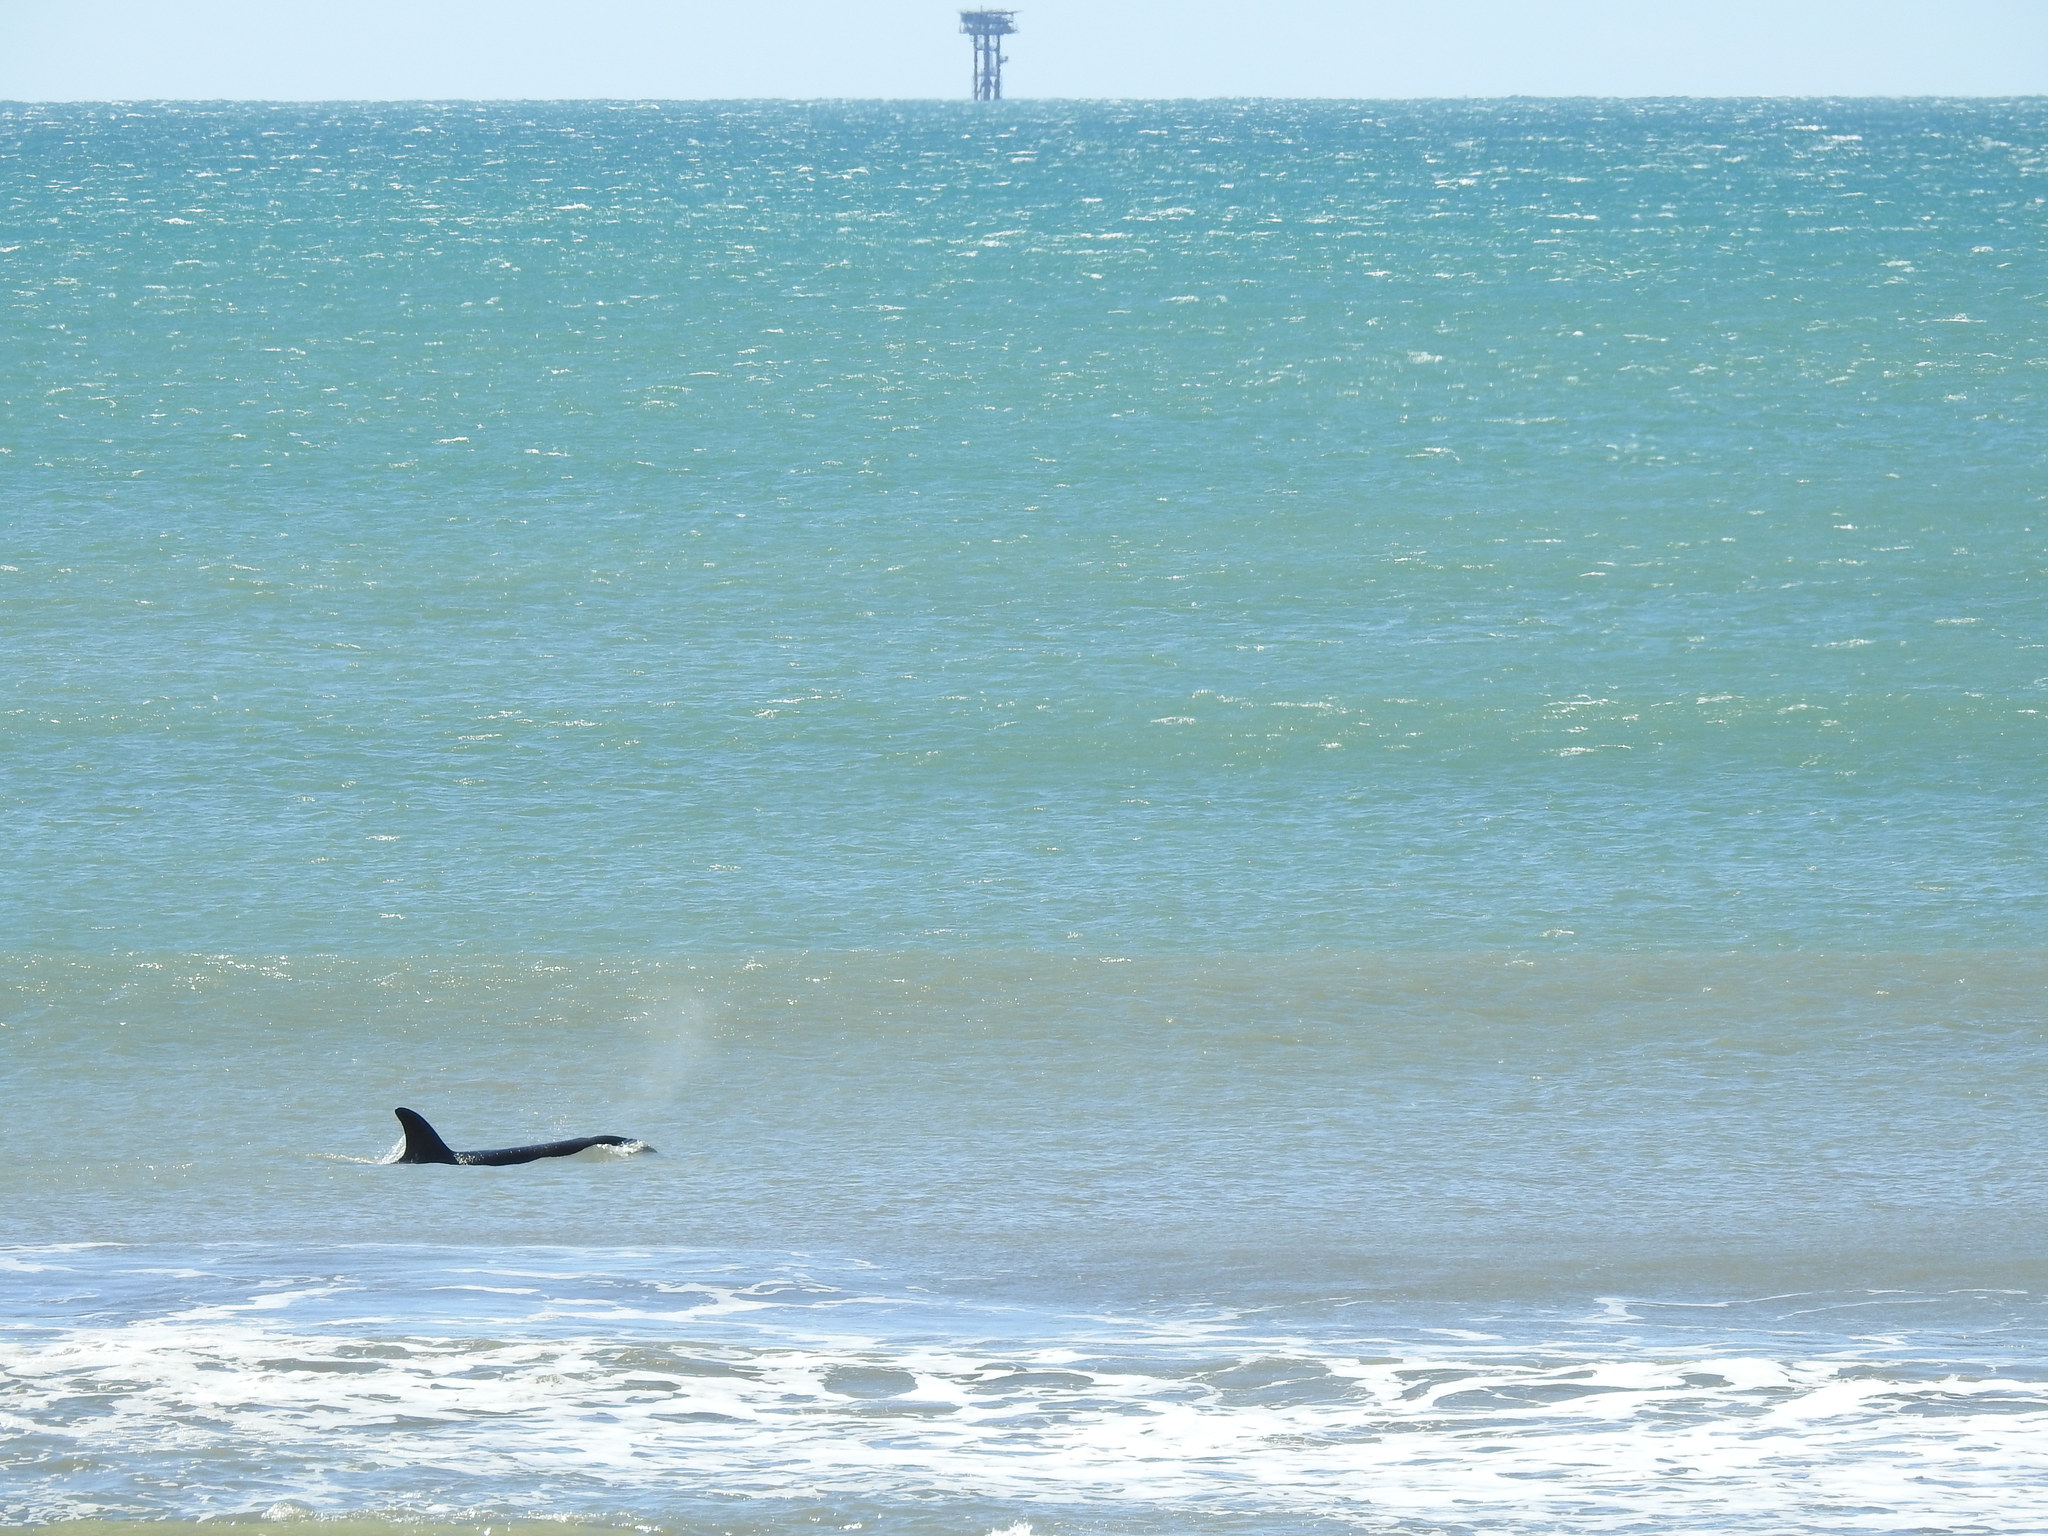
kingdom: Animalia
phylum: Chordata
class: Mammalia
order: Cetacea
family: Delphinidae
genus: Orcinus
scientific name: Orcinus orca
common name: Killer whale
